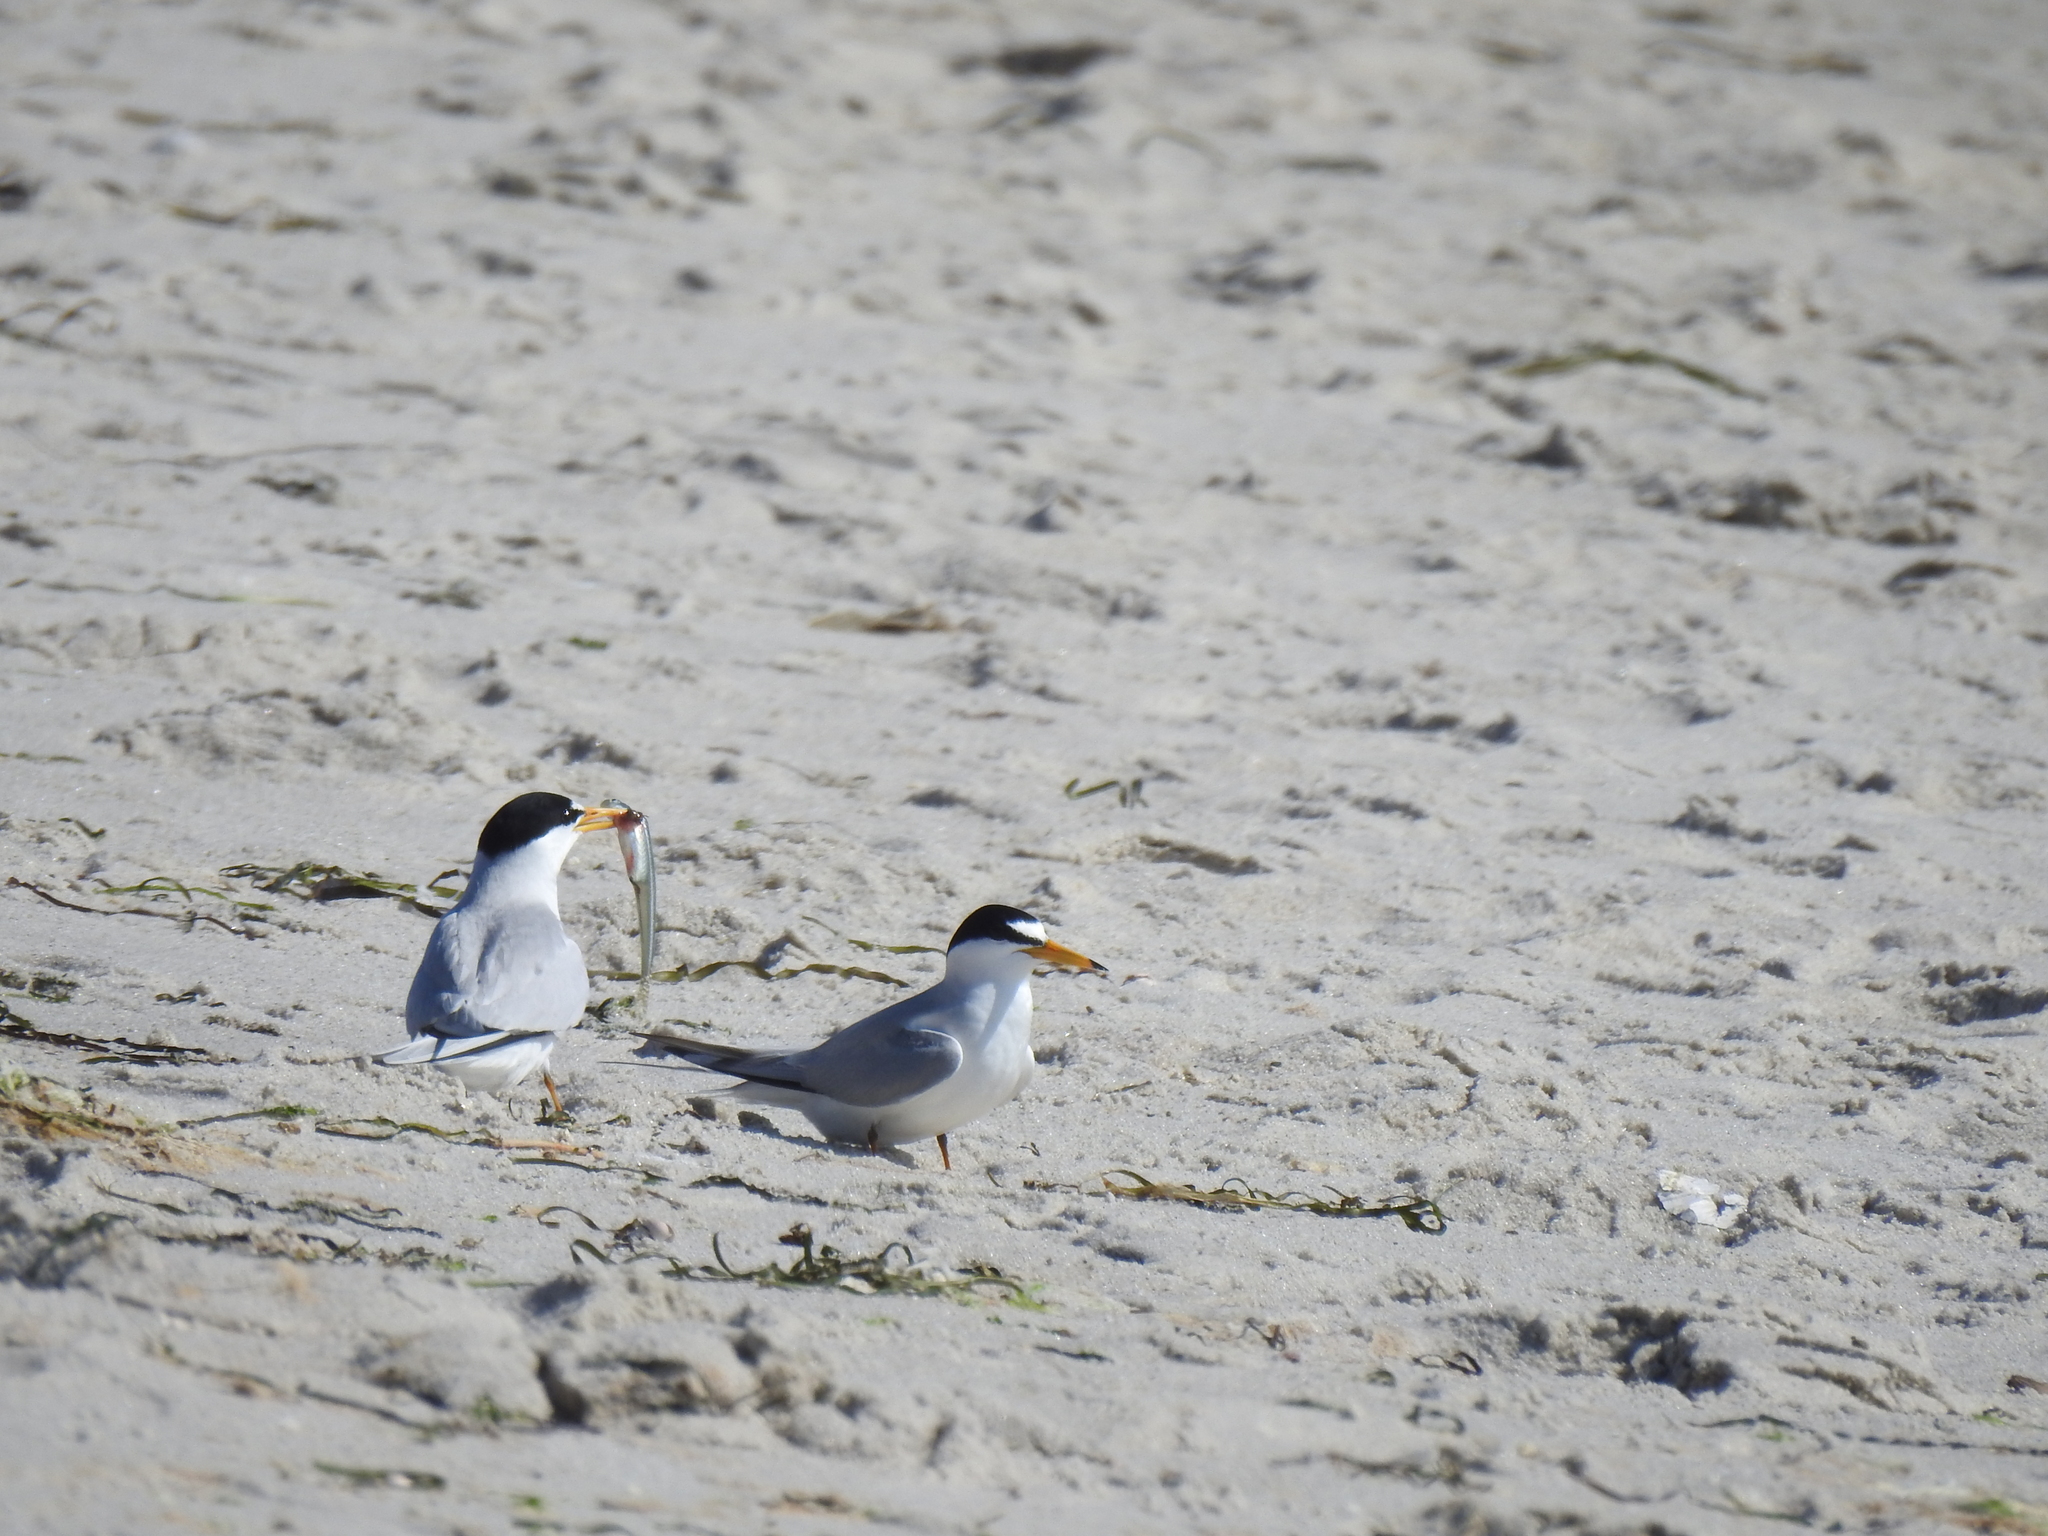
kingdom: Animalia
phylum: Chordata
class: Aves
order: Charadriiformes
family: Laridae
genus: Sternula
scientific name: Sternula antillarum
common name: Least tern
